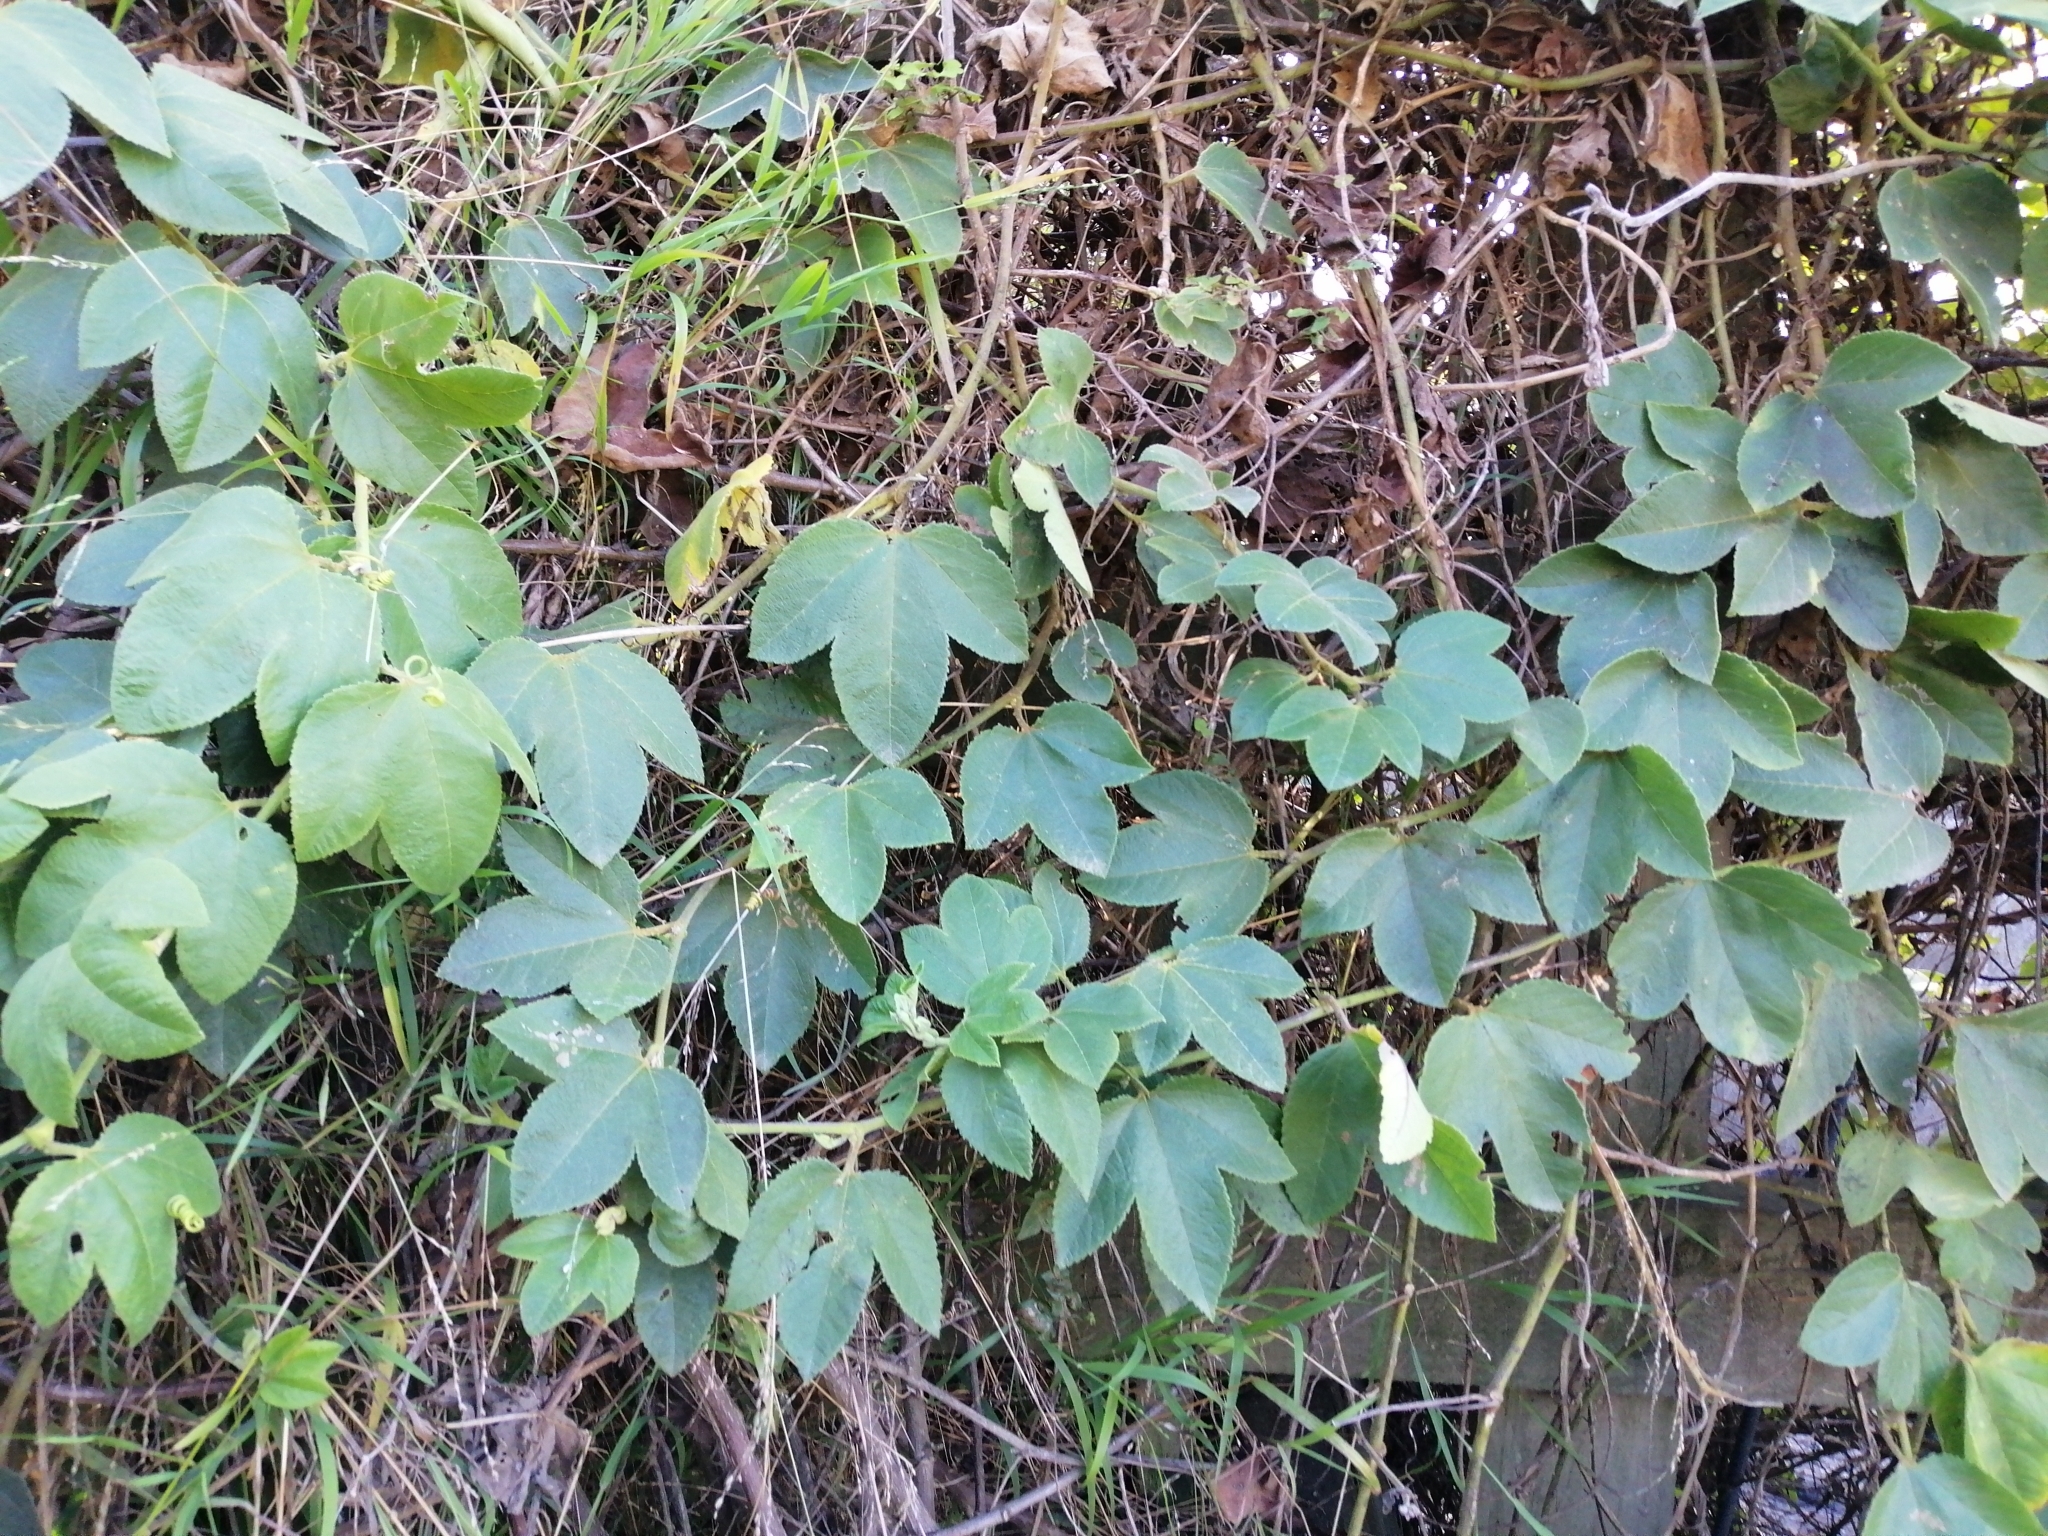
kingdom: Plantae
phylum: Tracheophyta
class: Magnoliopsida
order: Malpighiales
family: Passifloraceae
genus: Passiflora
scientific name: Passiflora tripartita
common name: Banana poka
